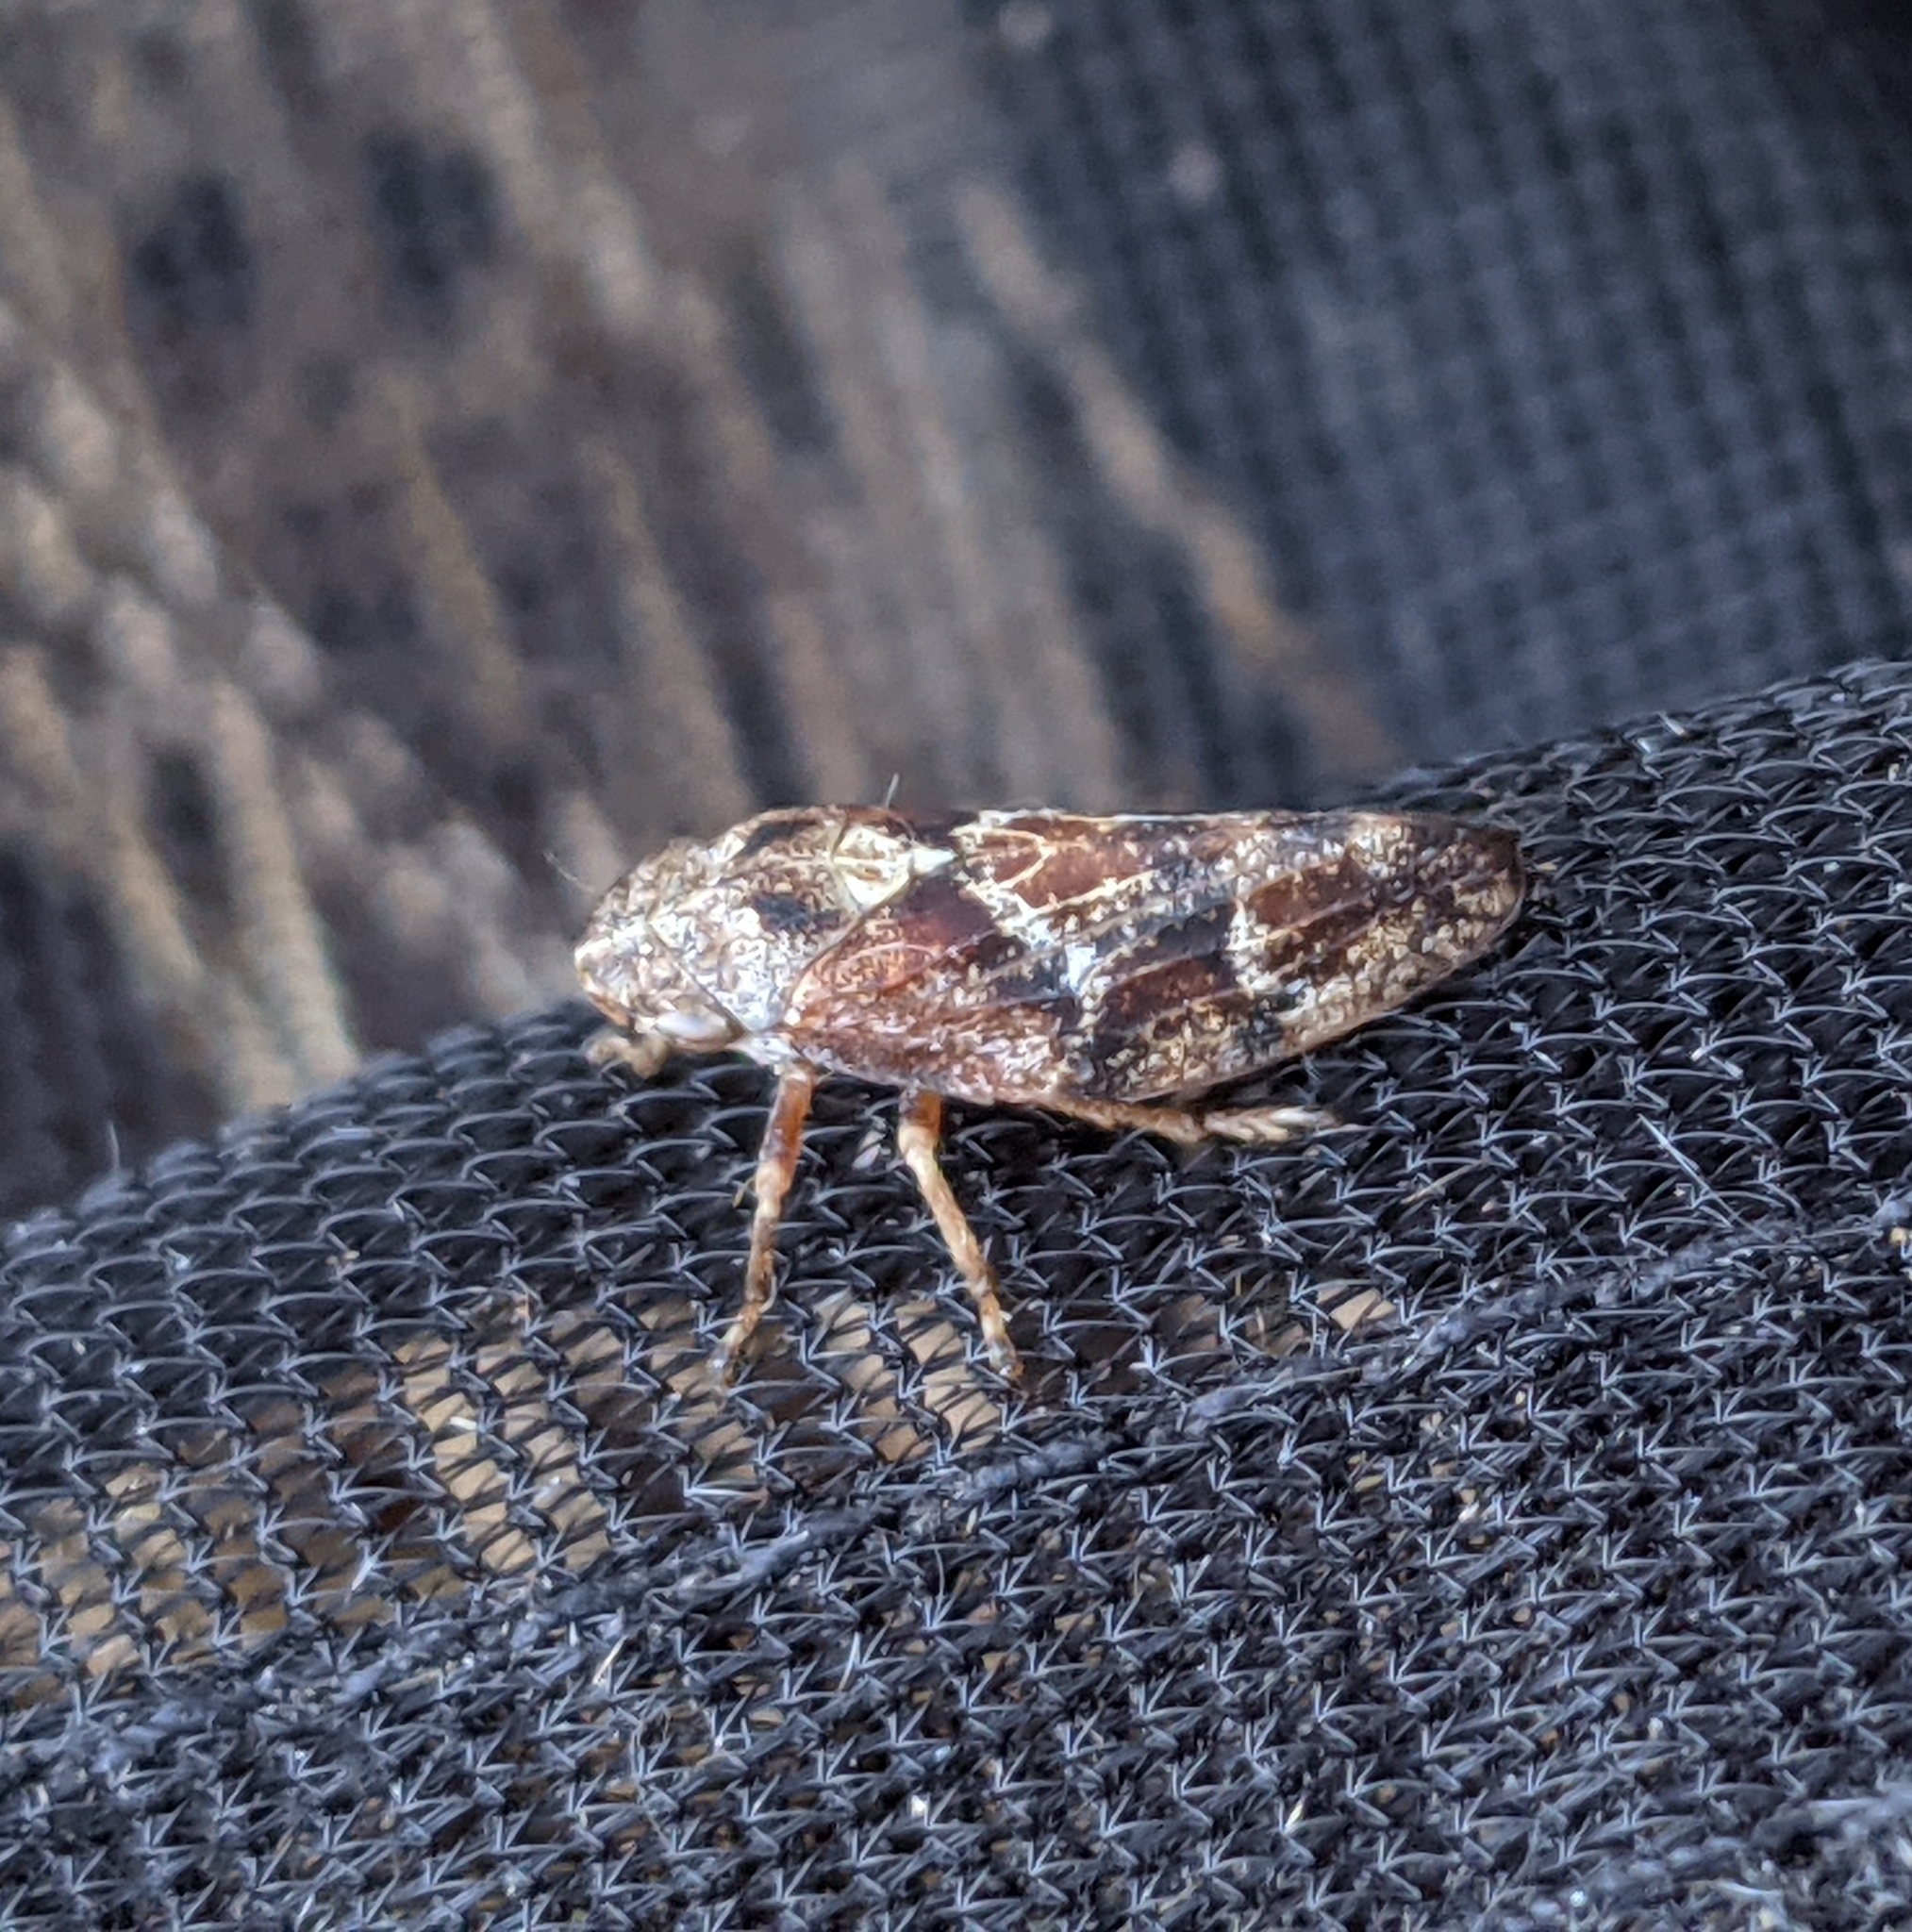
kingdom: Animalia
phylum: Arthropoda
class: Insecta
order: Hemiptera
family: Aphrophoridae
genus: Philaenus
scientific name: Philaenus spumarius
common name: Meadow spittlebug
